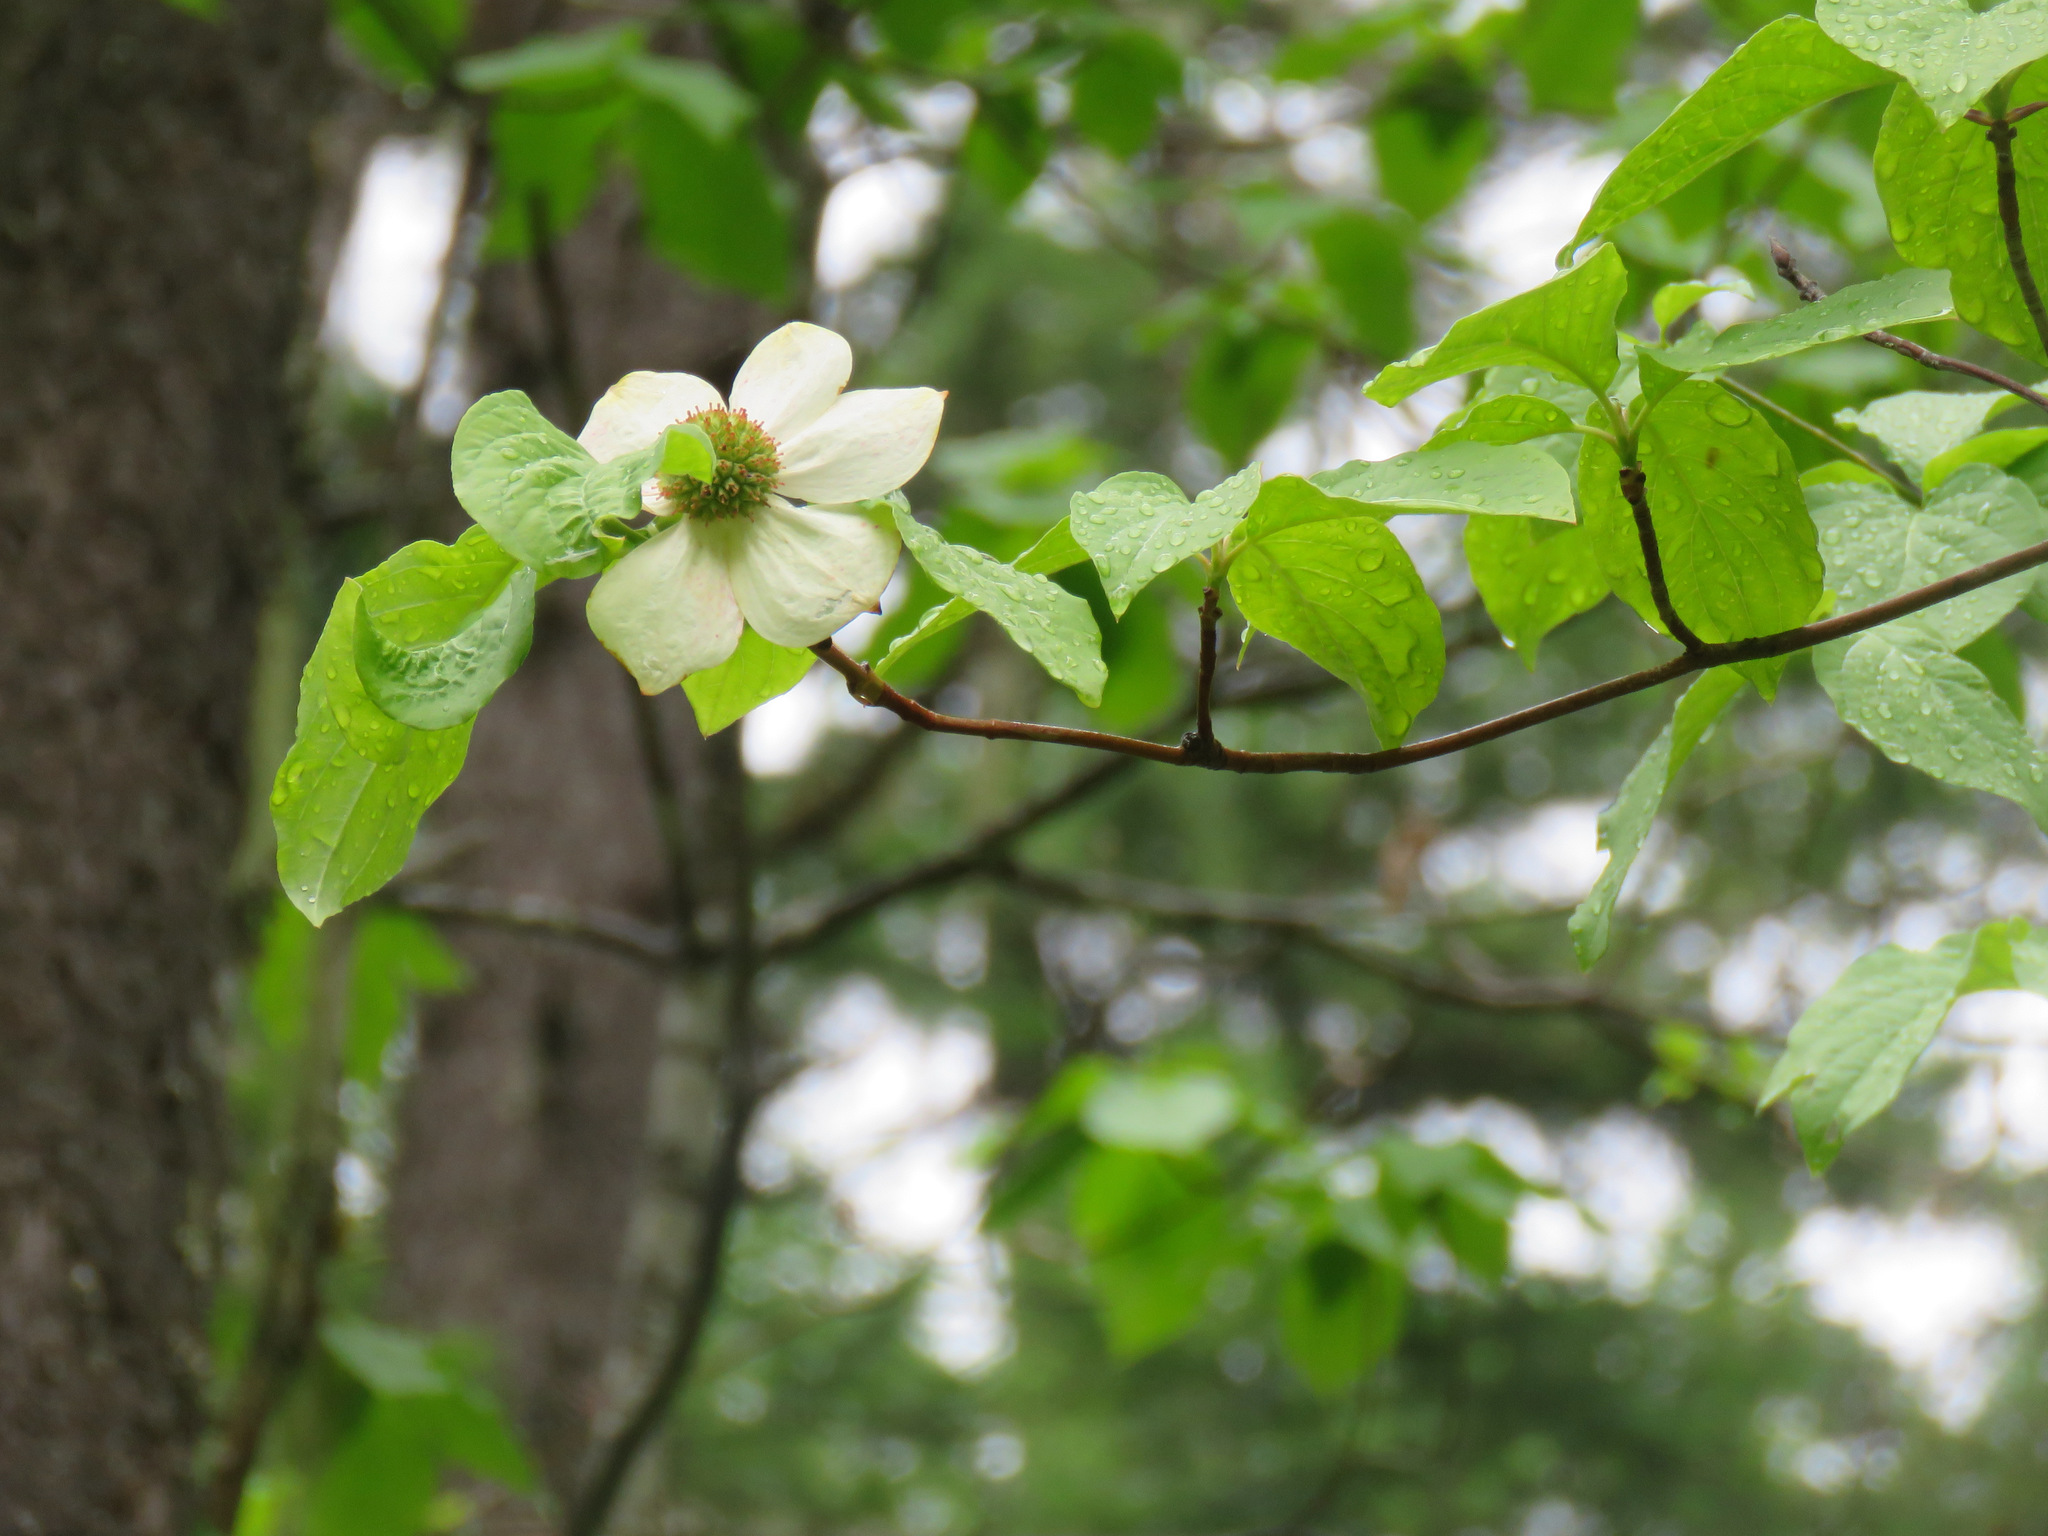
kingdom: Plantae
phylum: Tracheophyta
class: Magnoliopsida
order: Cornales
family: Cornaceae
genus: Cornus
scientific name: Cornus nuttallii
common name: Pacific dogwood
